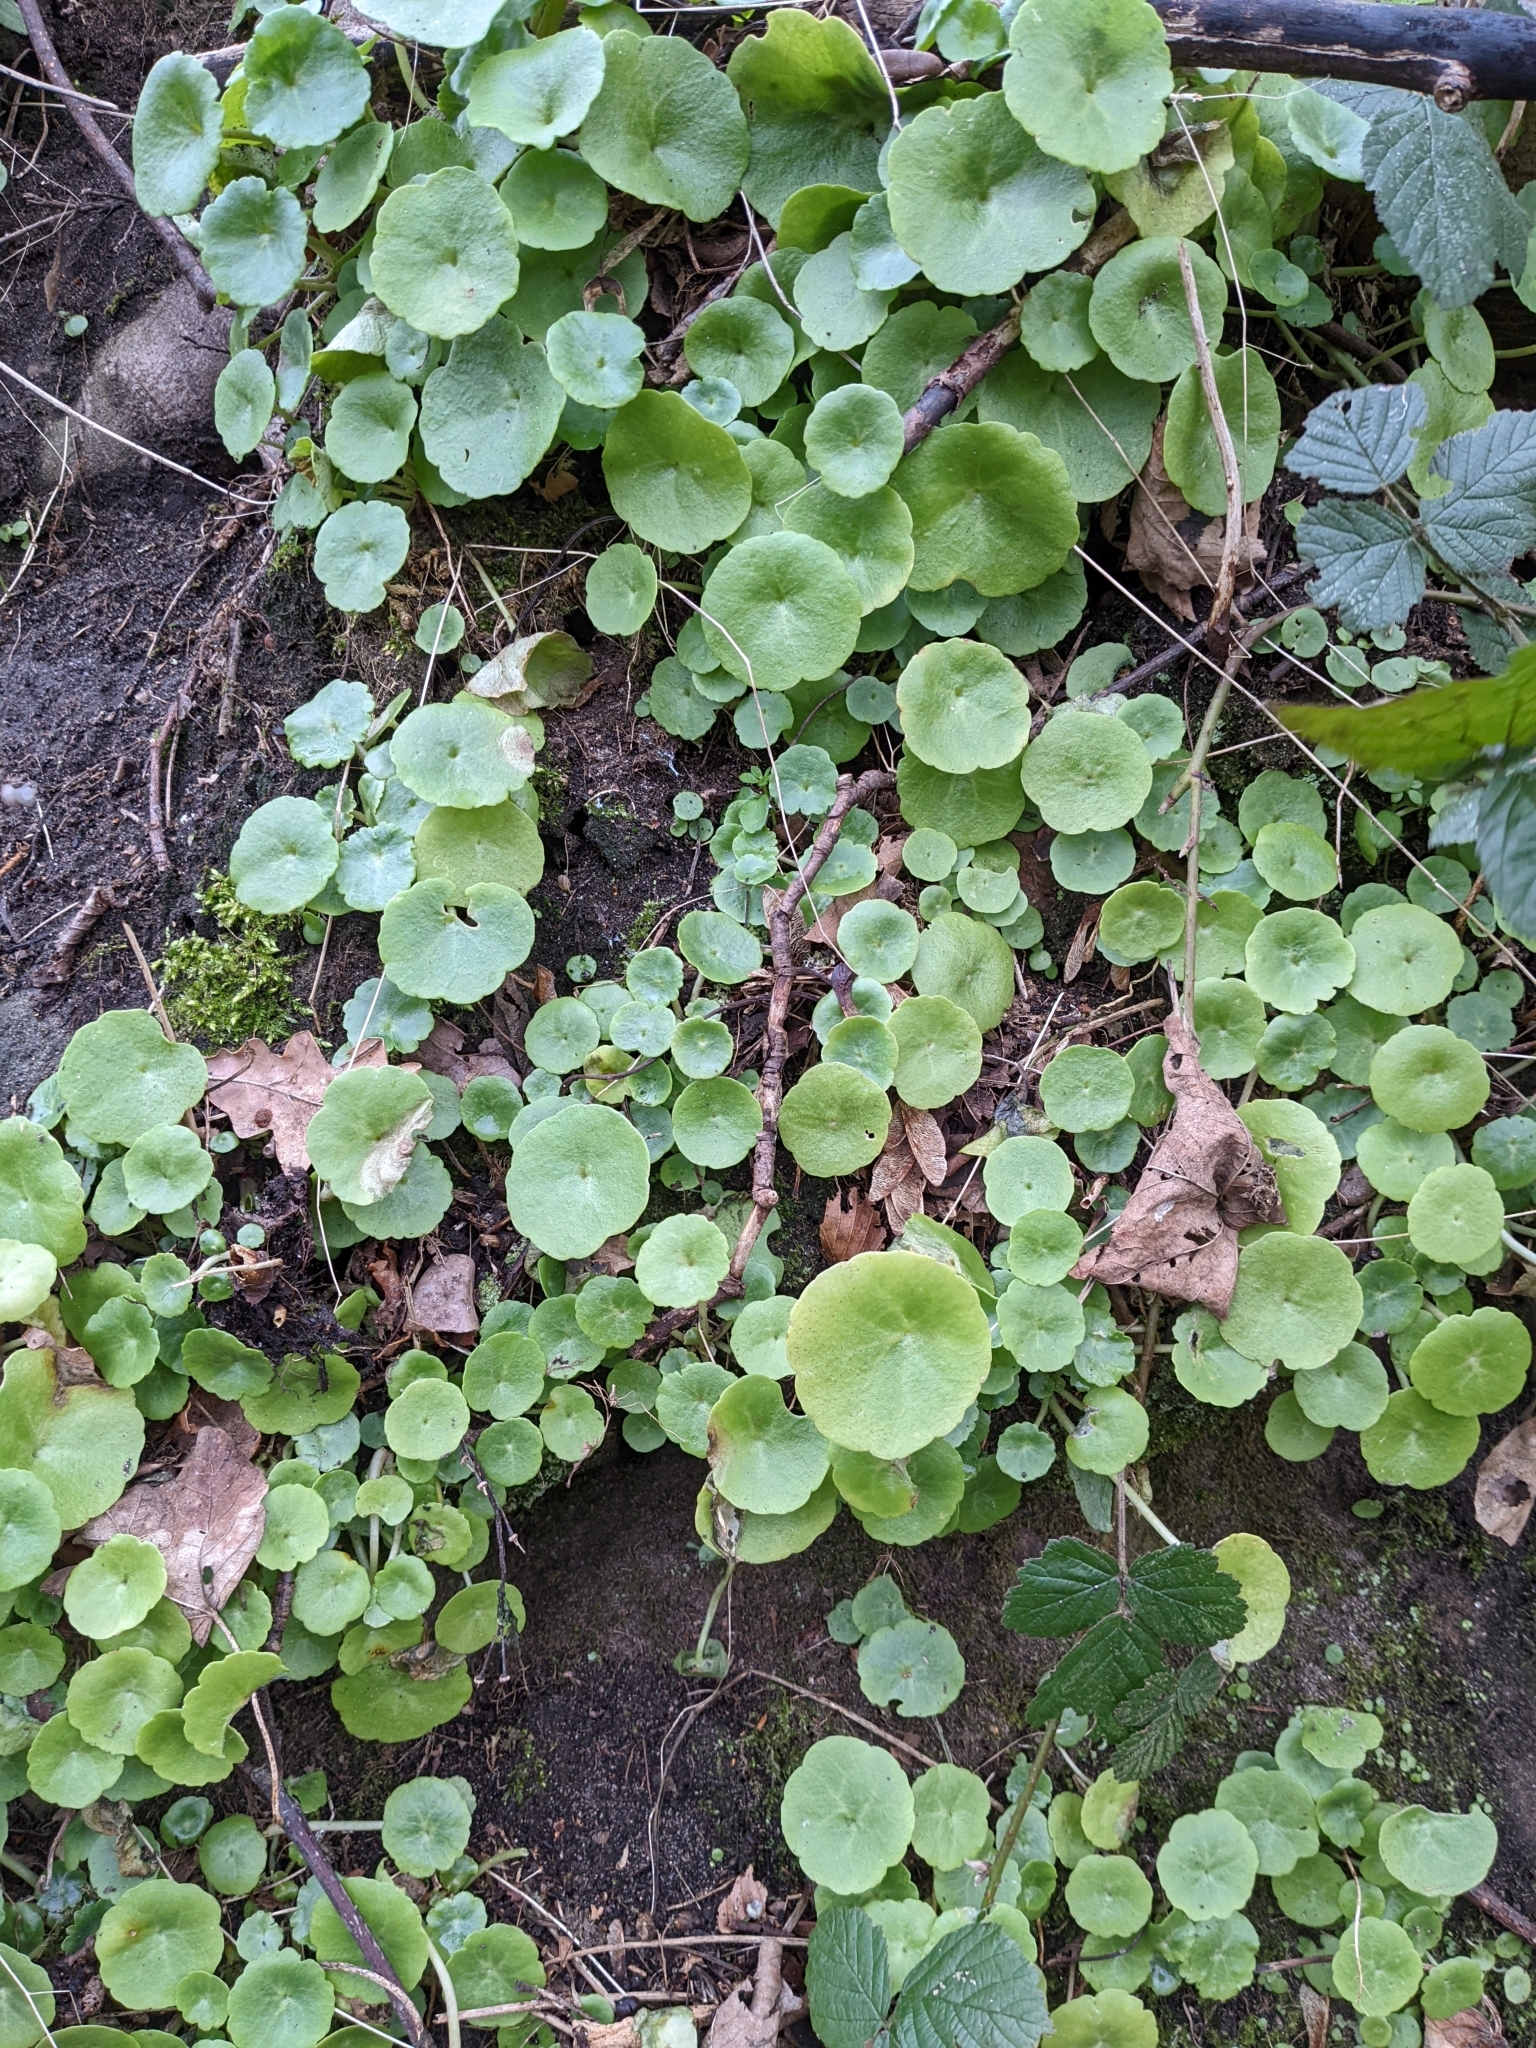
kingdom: Plantae
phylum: Tracheophyta
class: Magnoliopsida
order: Saxifragales
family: Crassulaceae
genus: Umbilicus
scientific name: Umbilicus rupestris
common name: Navelwort
